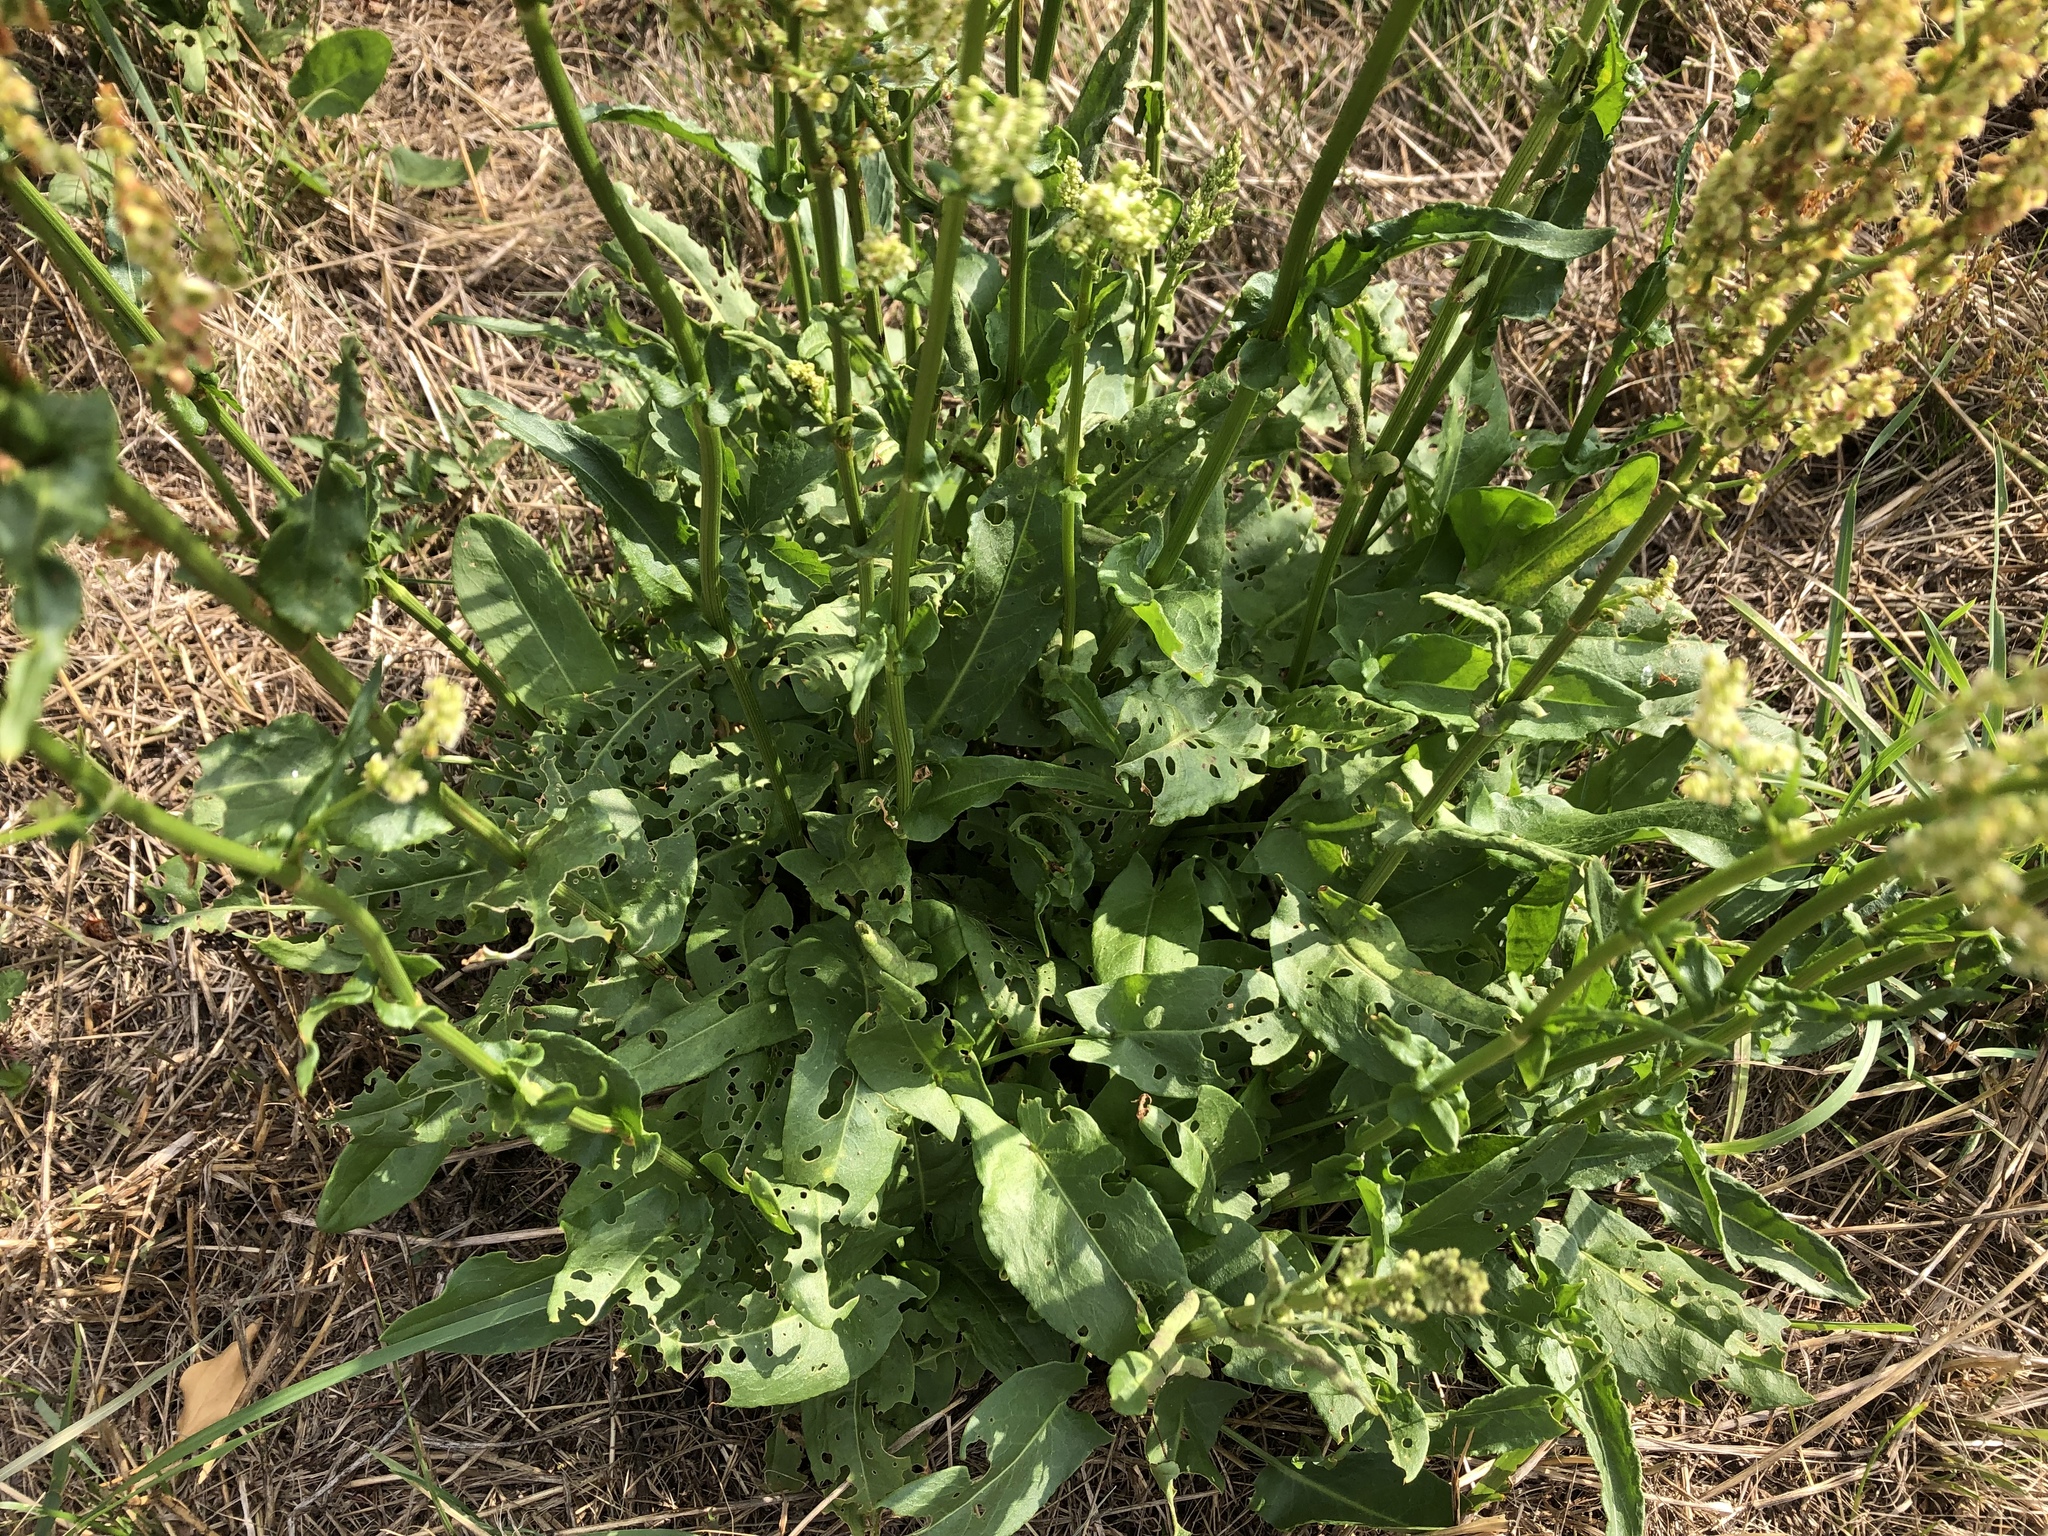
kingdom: Plantae
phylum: Tracheophyta
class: Magnoliopsida
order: Caryophyllales
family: Polygonaceae
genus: Rumex
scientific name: Rumex thyrsiflorus
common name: Garden sorrel
